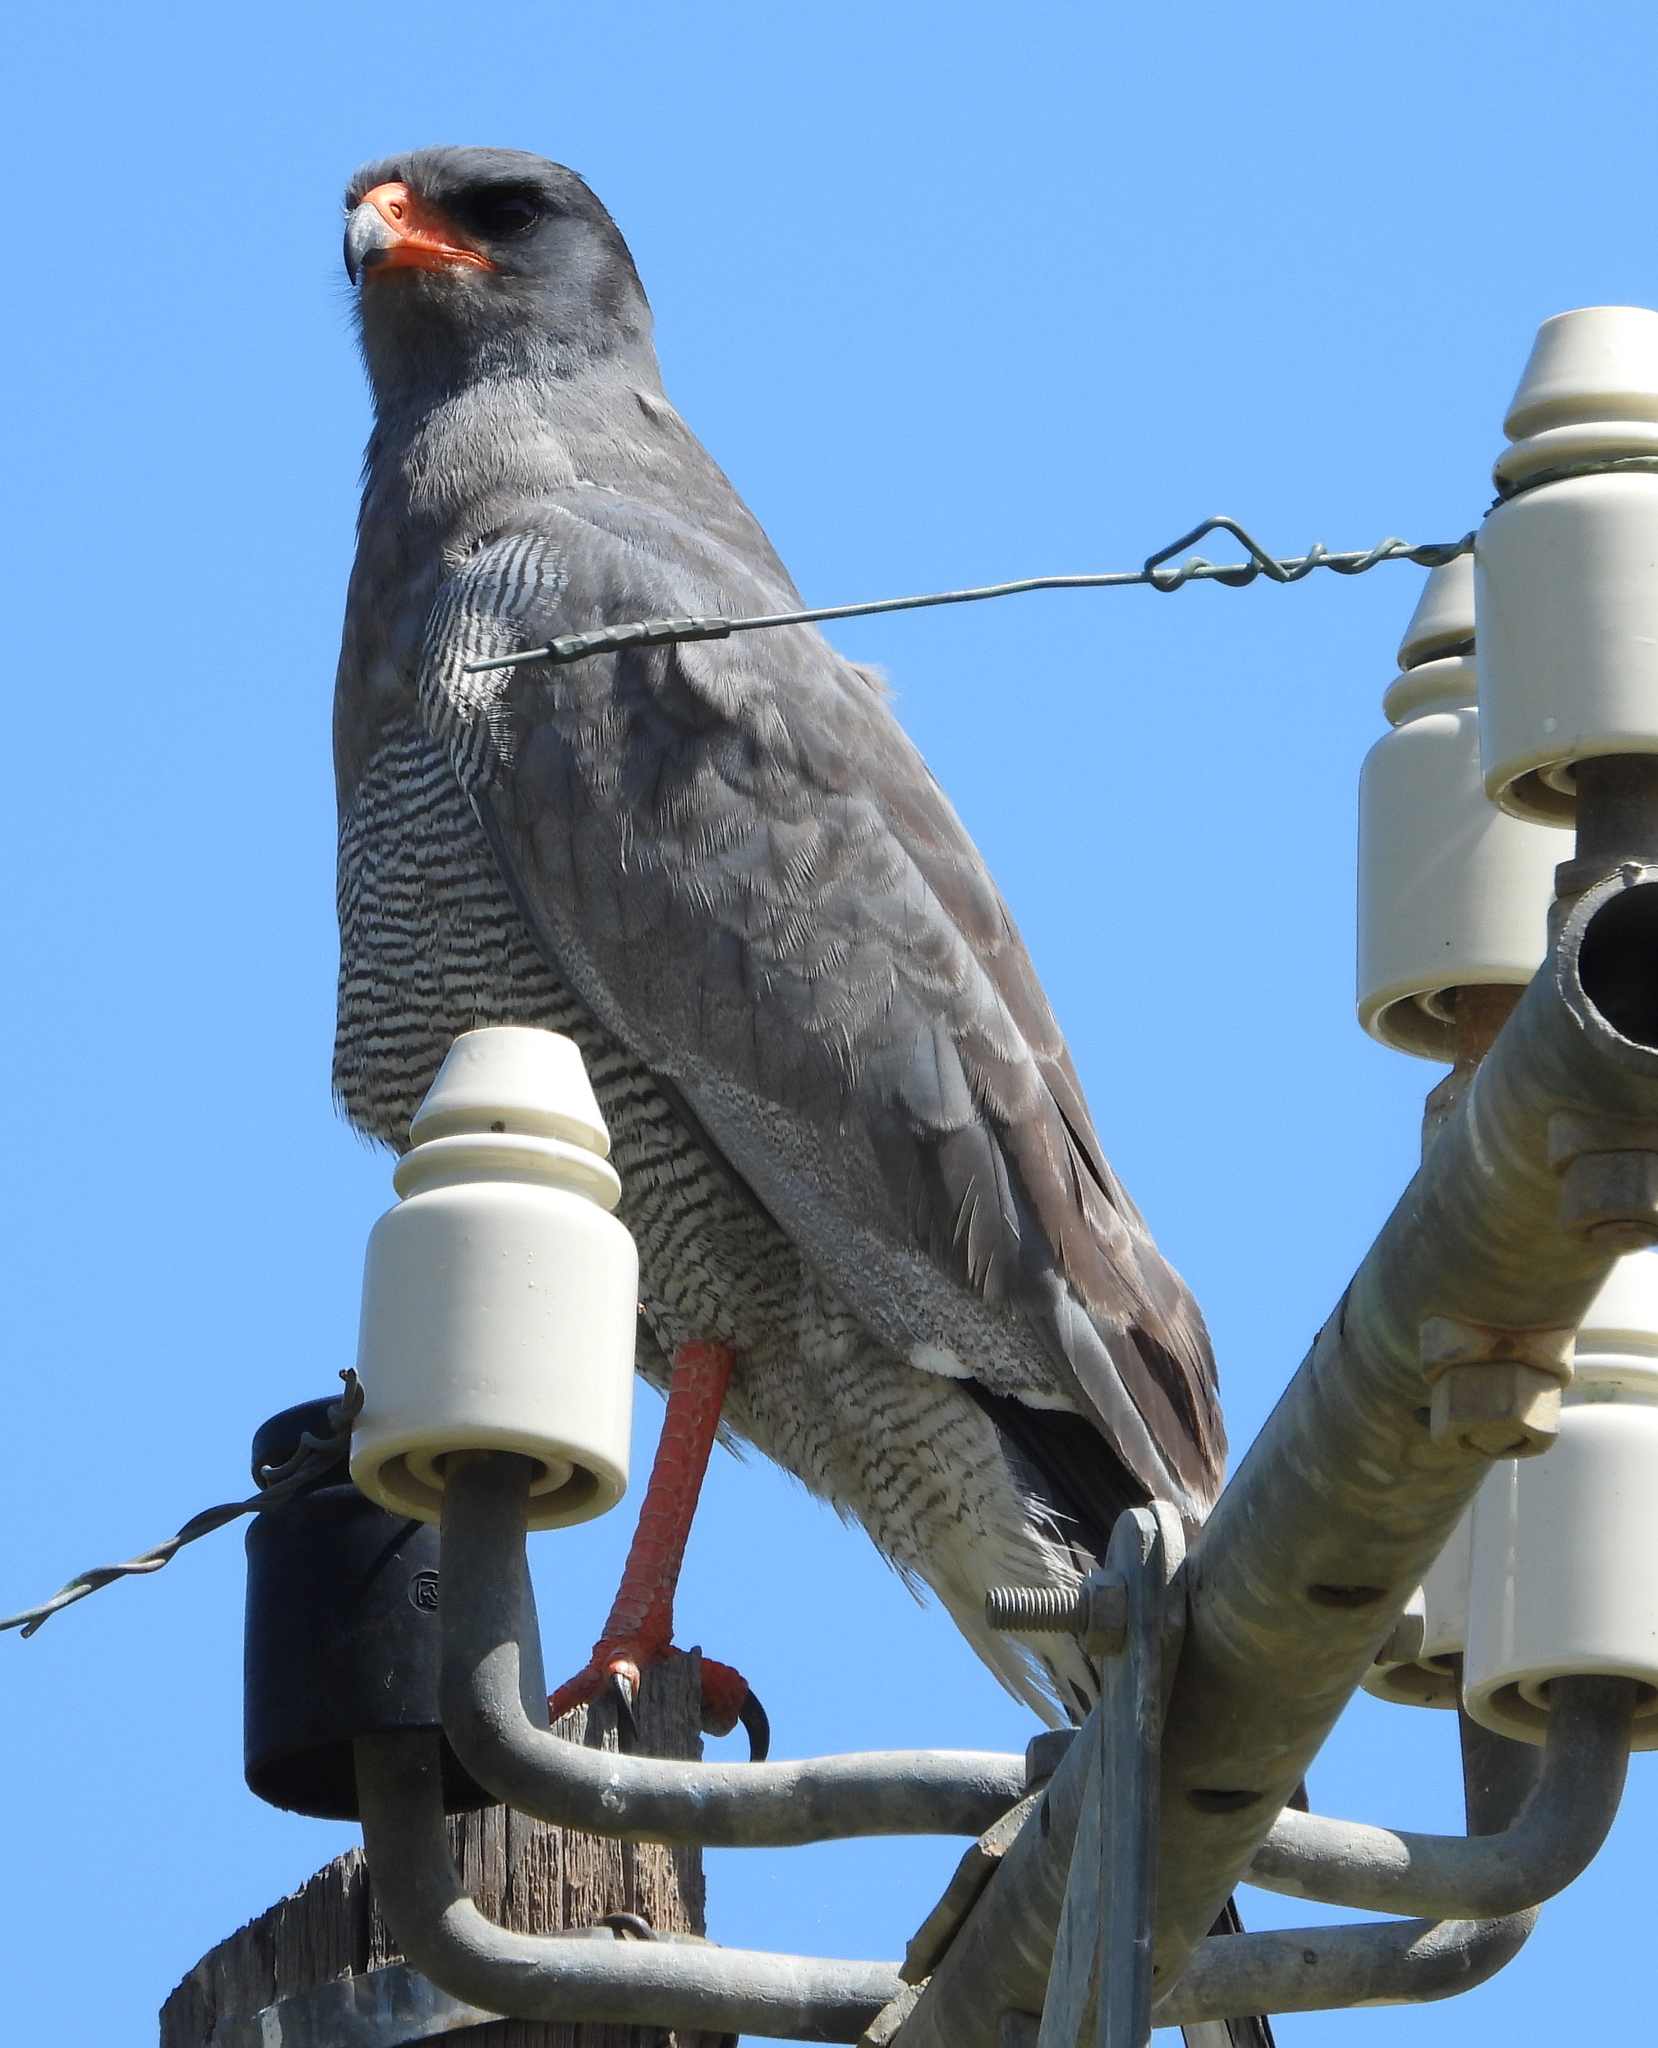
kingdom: Animalia
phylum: Chordata
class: Aves
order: Accipitriformes
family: Accipitridae
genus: Melierax
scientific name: Melierax canorus
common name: Pale chanting-goshawk
